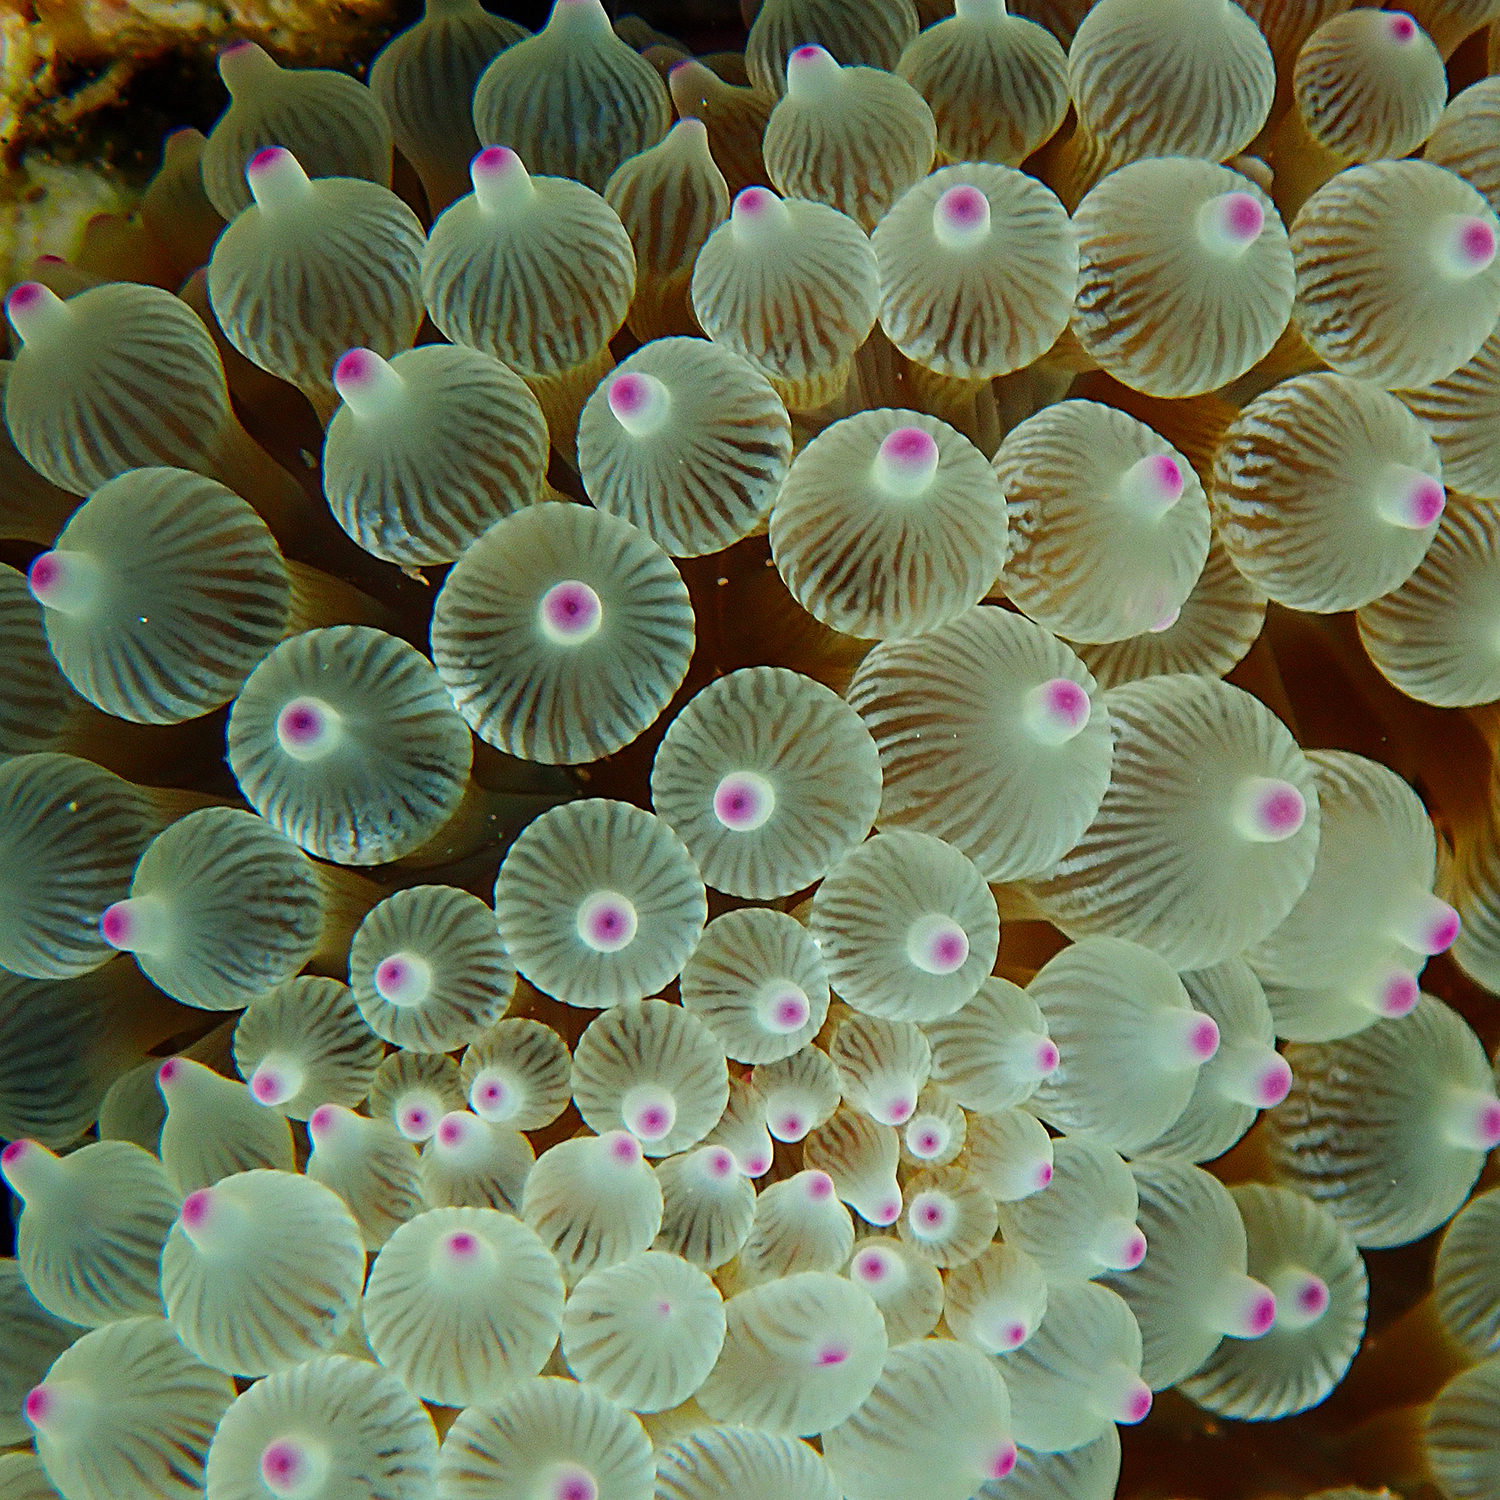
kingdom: Animalia
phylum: Cnidaria
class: Anthozoa
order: Actiniaria
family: Actiniidae
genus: Entacmaea
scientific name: Entacmaea quadricolor
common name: Bulb tentacle sea anemone
